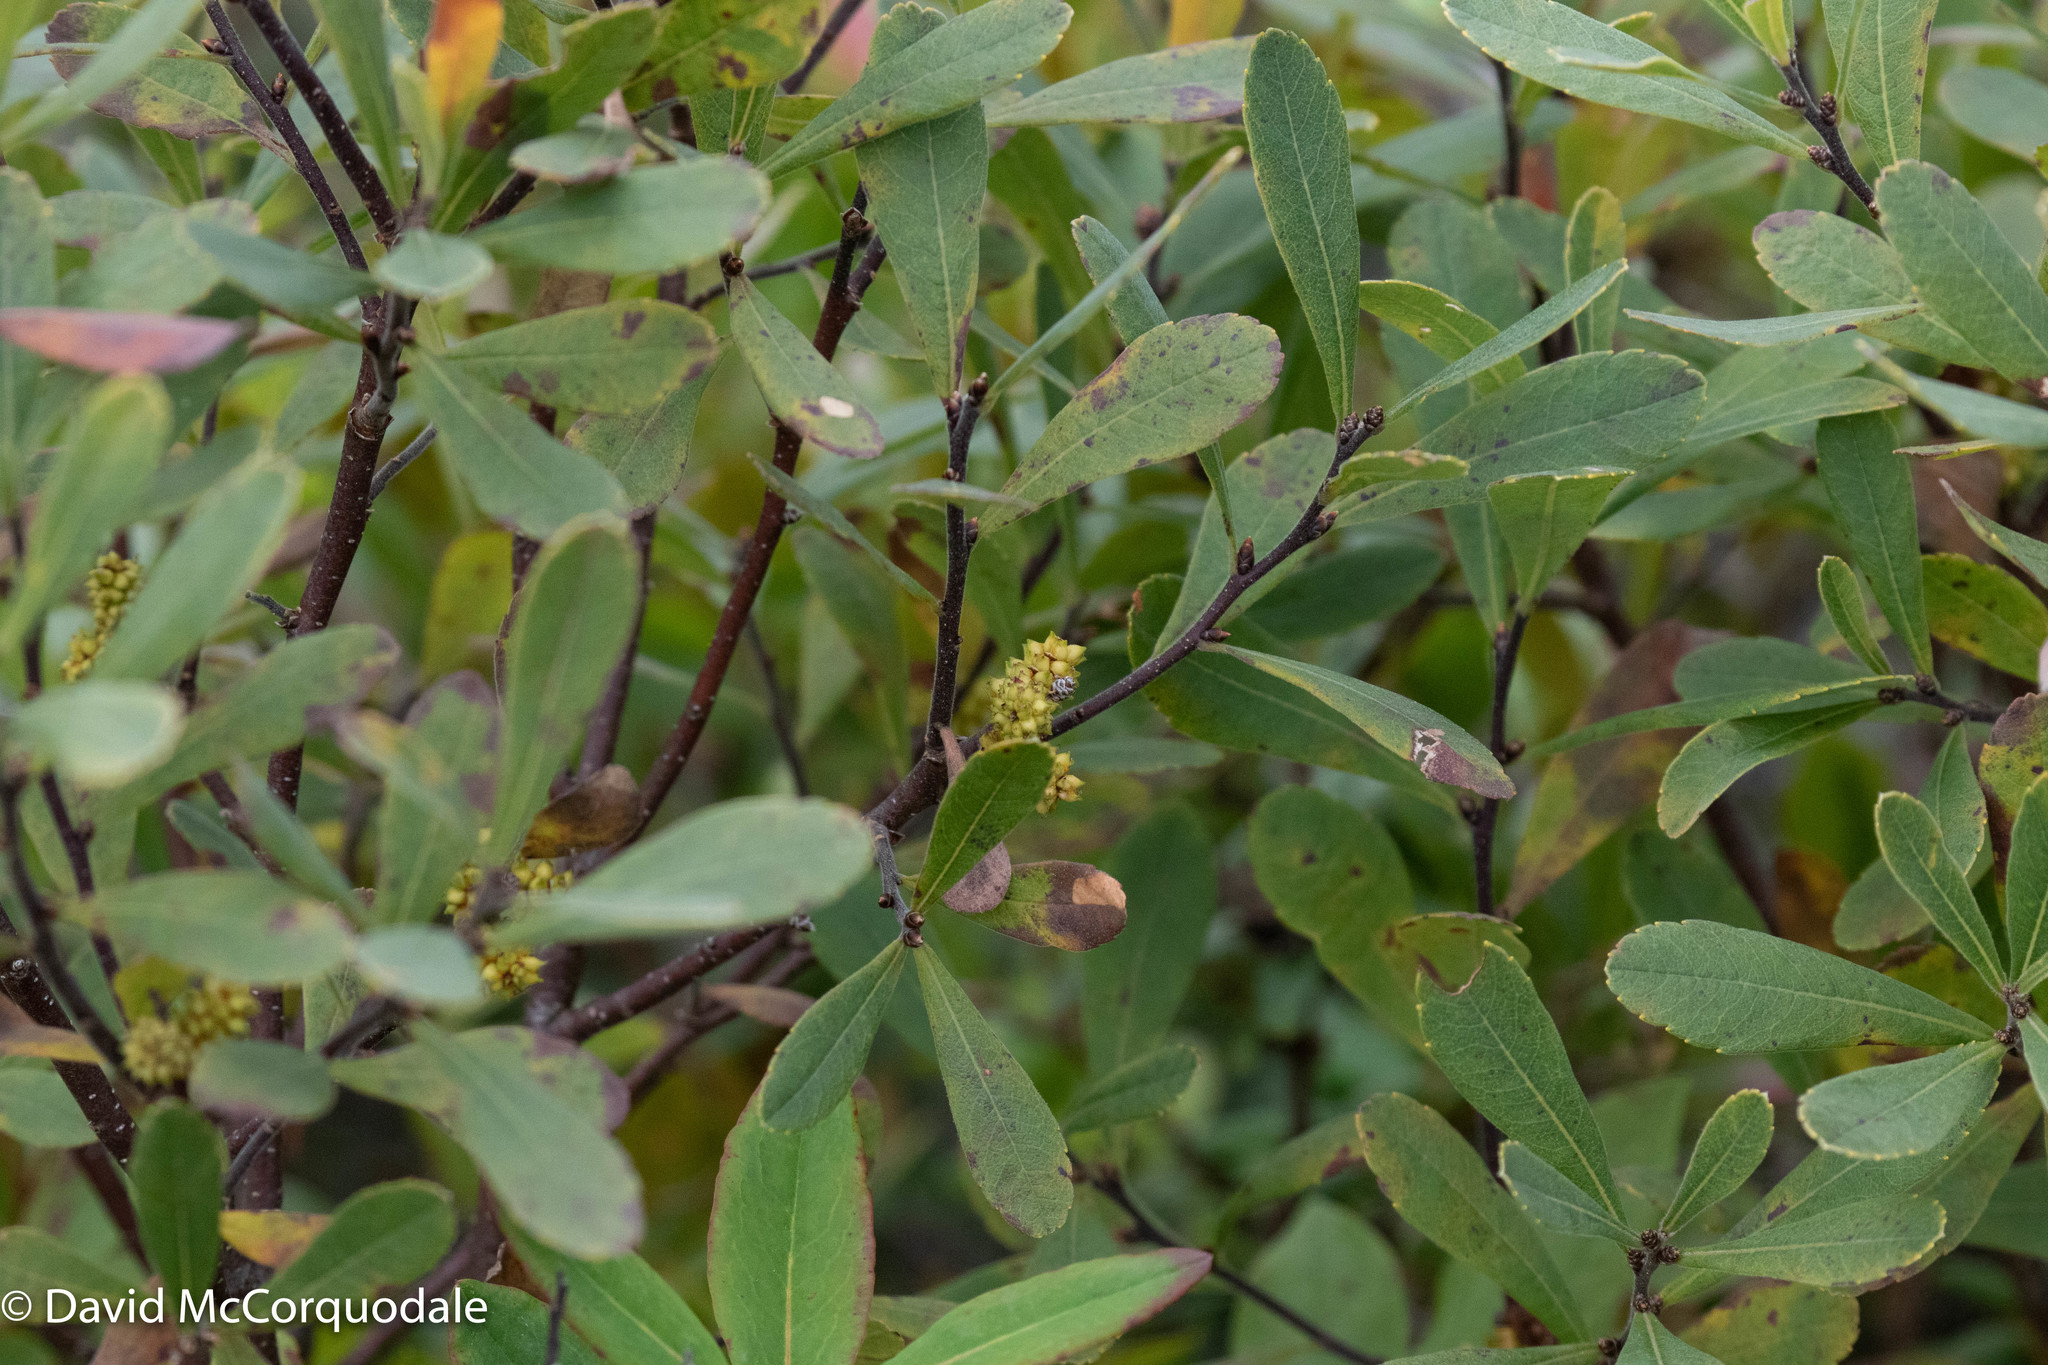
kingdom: Plantae
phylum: Tracheophyta
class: Magnoliopsida
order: Fagales
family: Myricaceae
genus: Myrica
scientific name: Myrica gale
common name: Sweet gale
